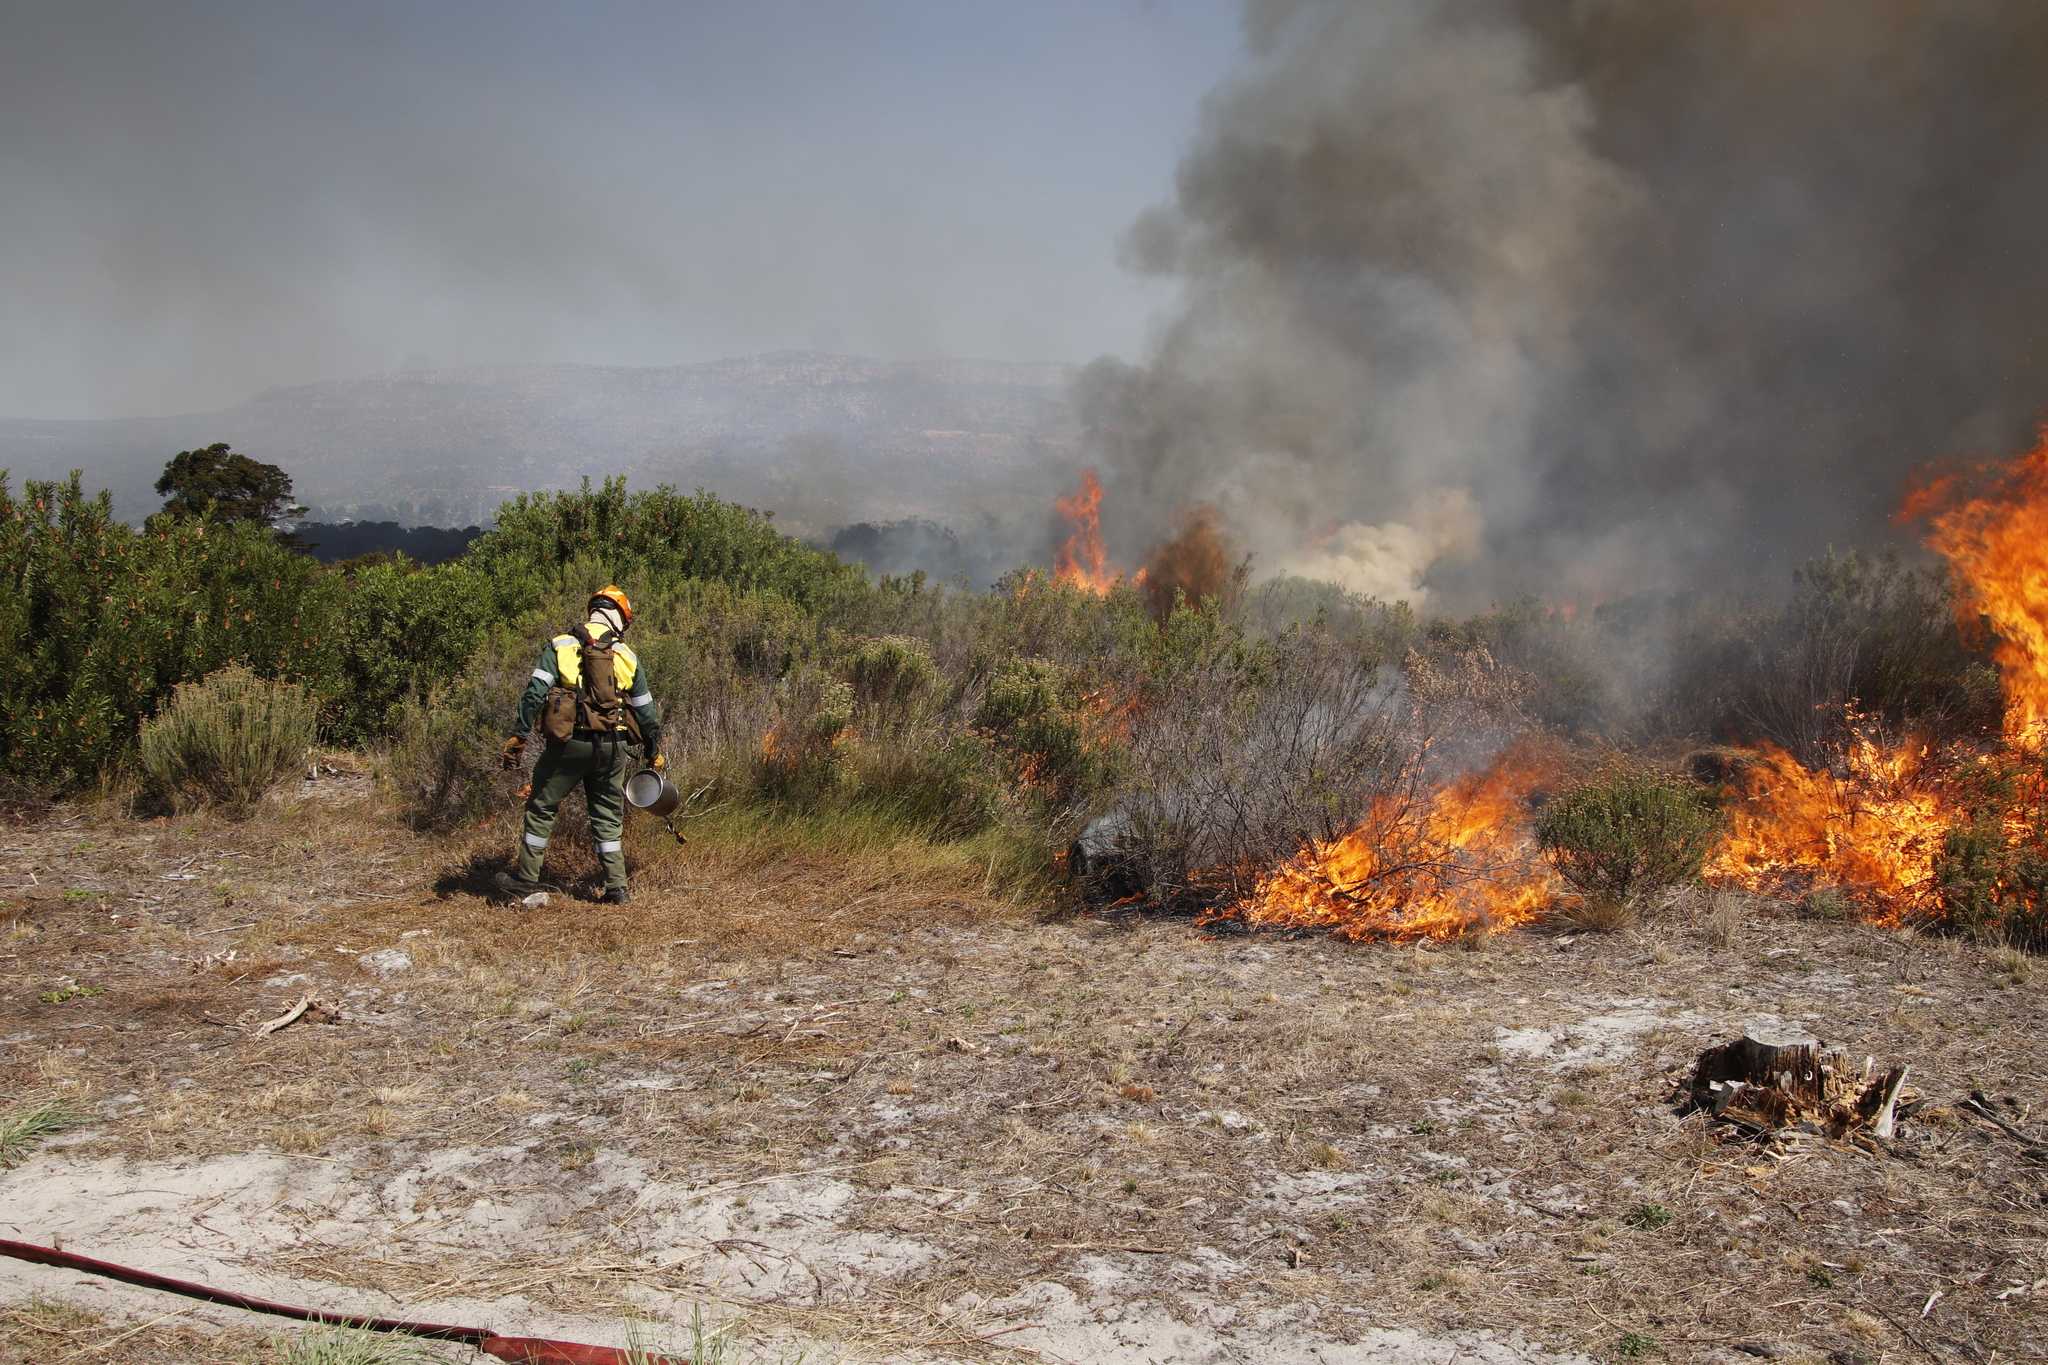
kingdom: Plantae
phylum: Tracheophyta
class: Liliopsida
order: Poales
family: Restionaceae
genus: Willdenowia
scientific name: Willdenowia sulcata
